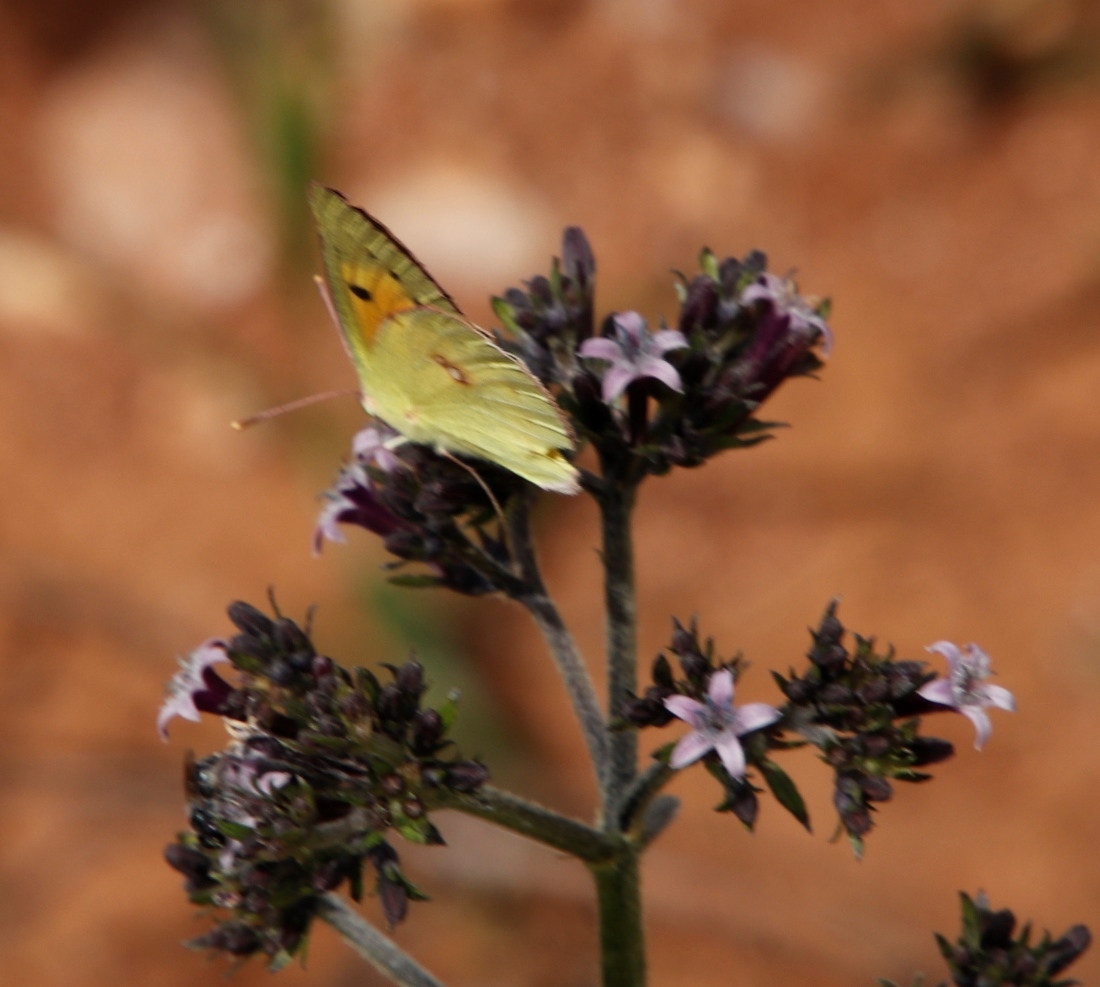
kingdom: Animalia
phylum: Arthropoda
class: Insecta
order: Lepidoptera
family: Pieridae
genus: Colias
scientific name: Colias electo
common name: African clouded yellow
